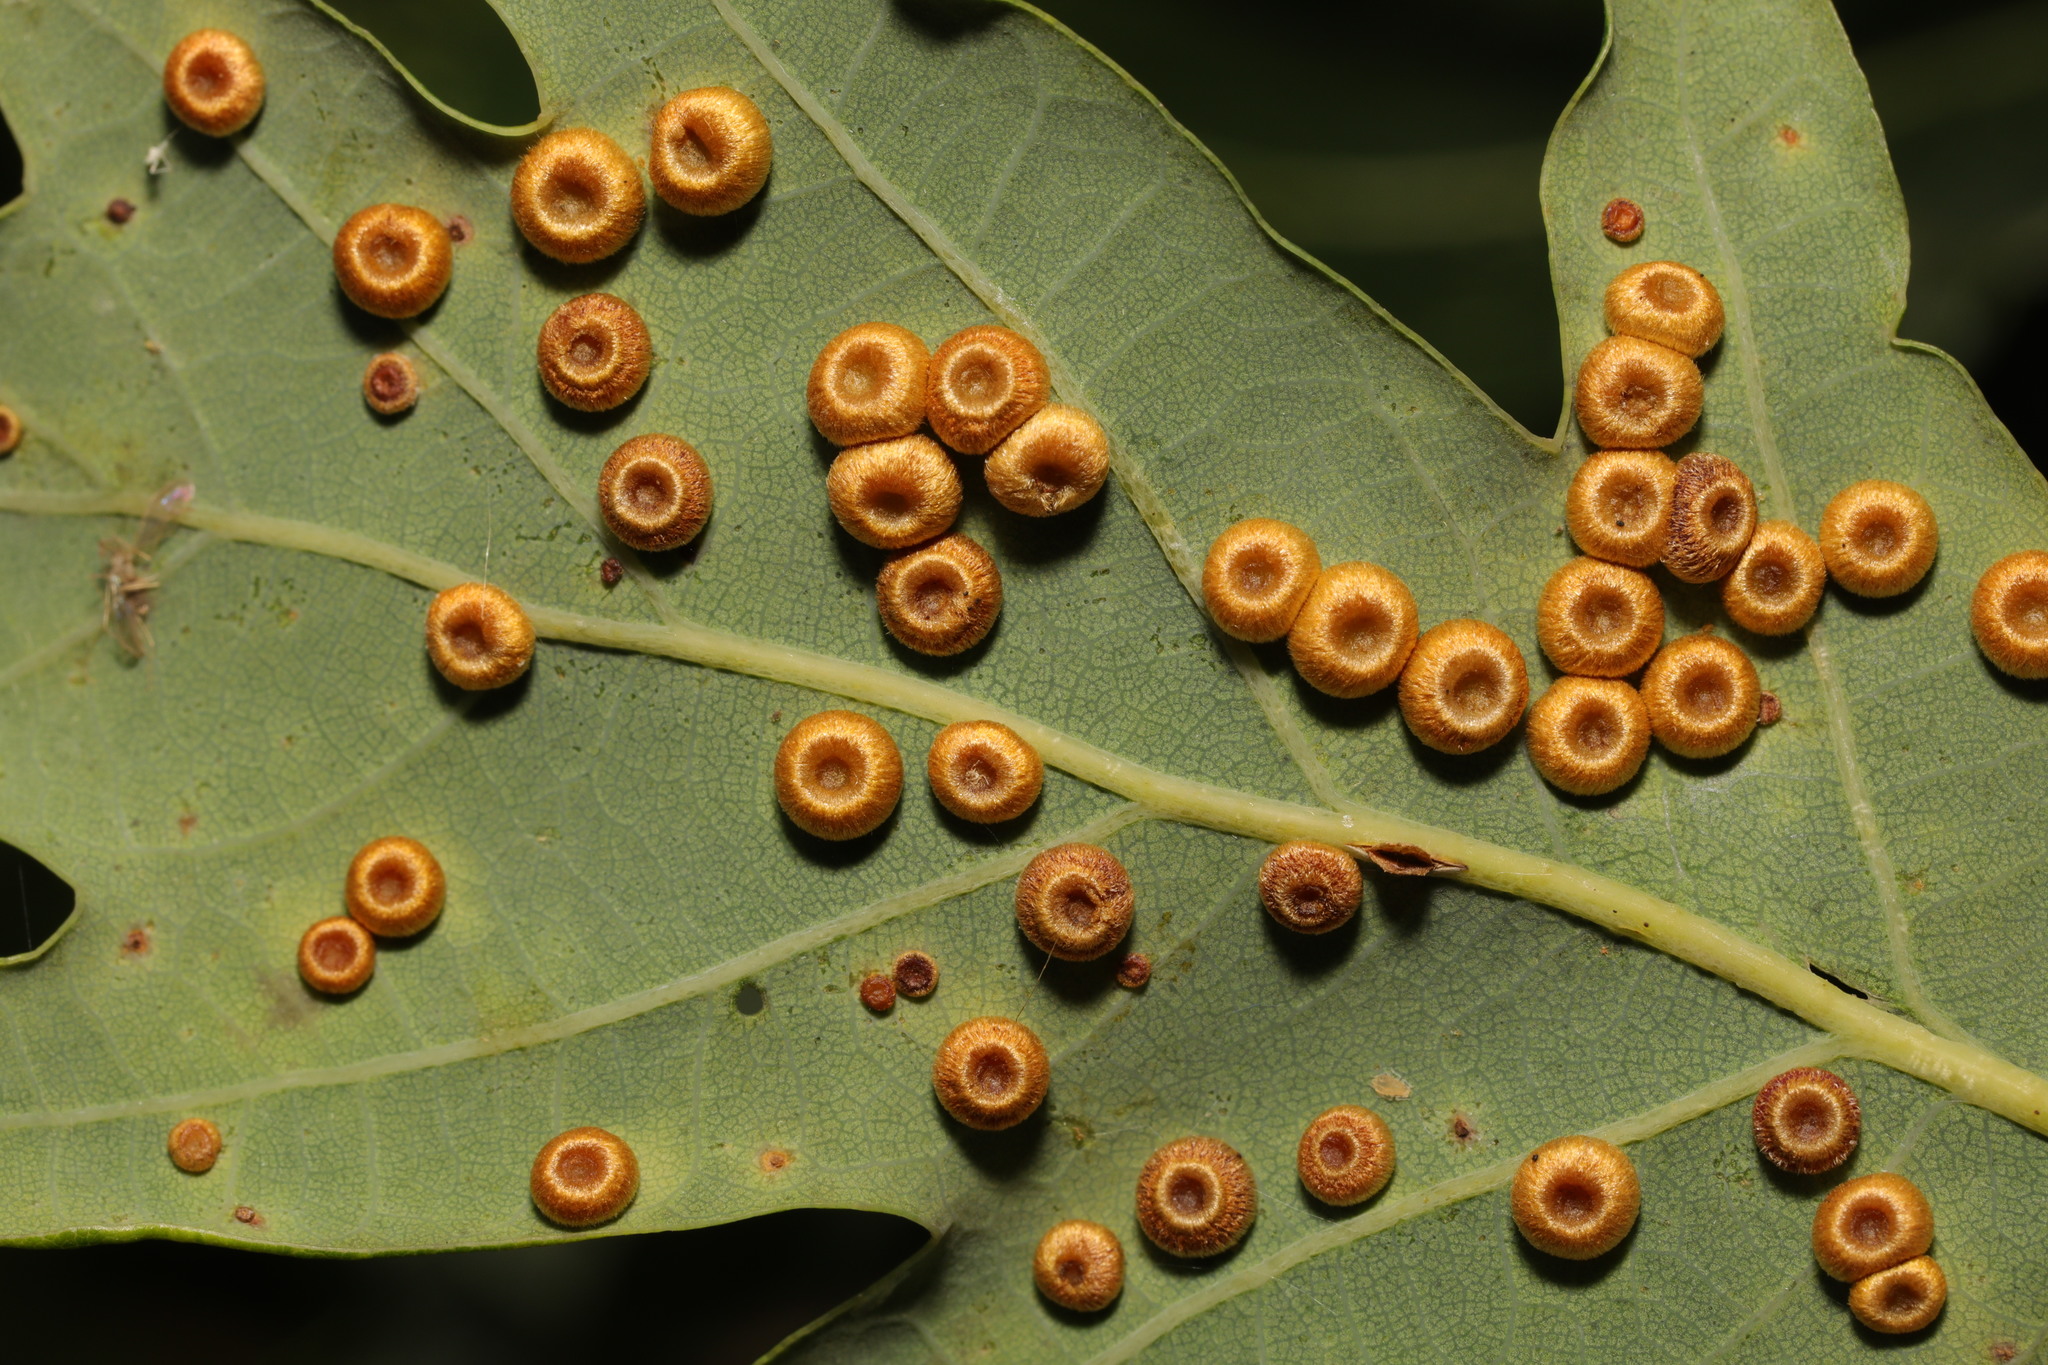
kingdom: Animalia
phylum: Arthropoda
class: Insecta
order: Hymenoptera
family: Cynipidae
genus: Neuroterus
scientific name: Neuroterus numismalis
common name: Silk-button spangle gall
